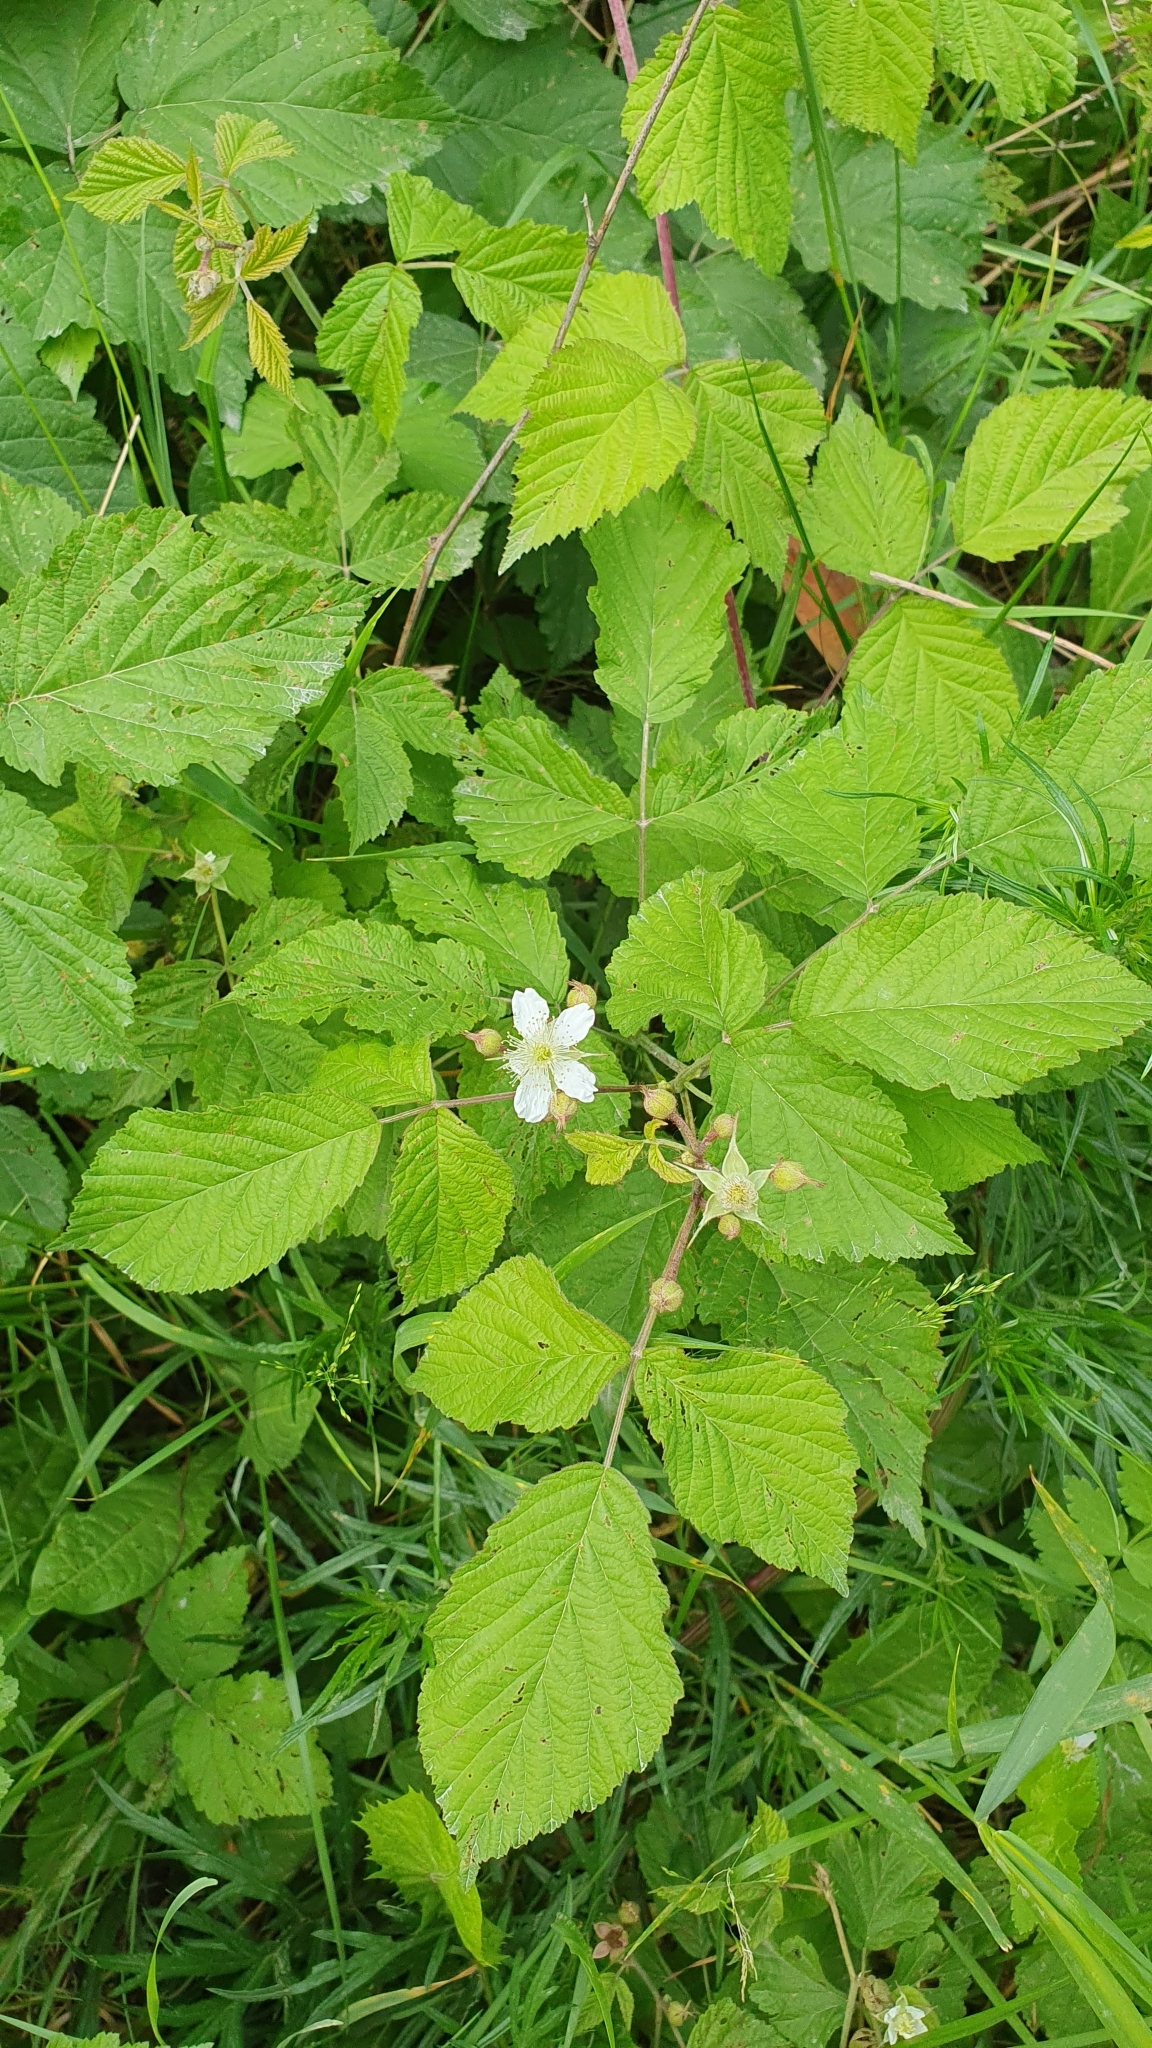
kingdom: Plantae
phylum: Tracheophyta
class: Magnoliopsida
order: Rosales
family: Rosaceae
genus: Rubus
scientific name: Rubus caesius
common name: Dewberry
